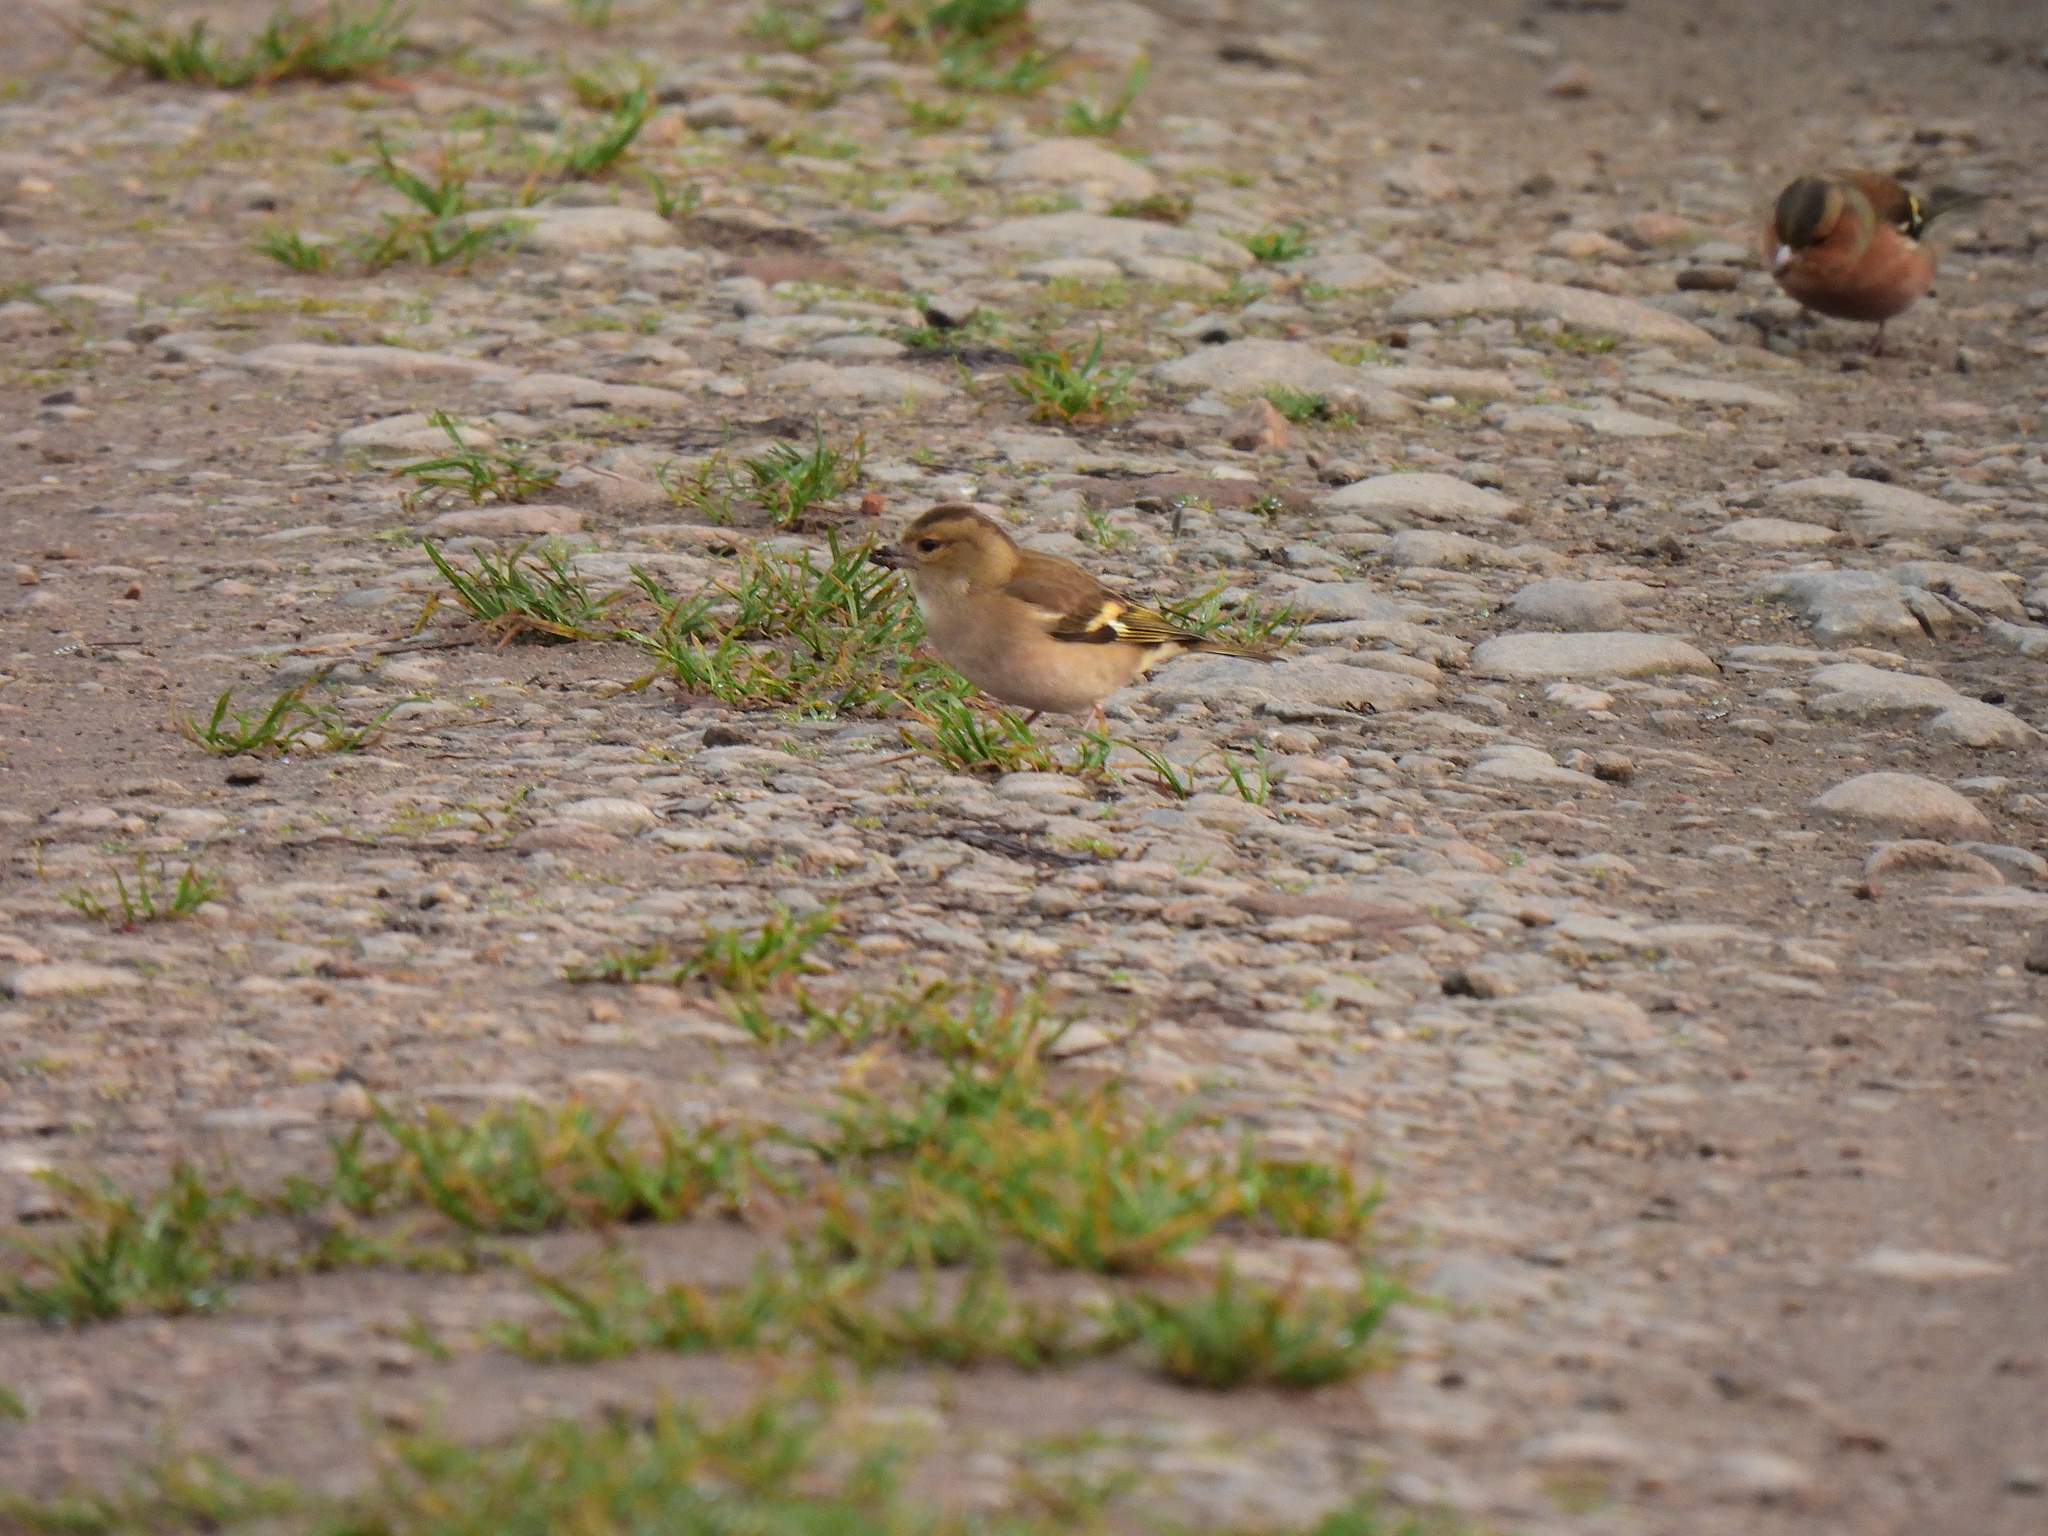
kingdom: Animalia
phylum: Chordata
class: Aves
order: Passeriformes
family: Fringillidae
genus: Fringilla
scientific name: Fringilla coelebs
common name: Common chaffinch
